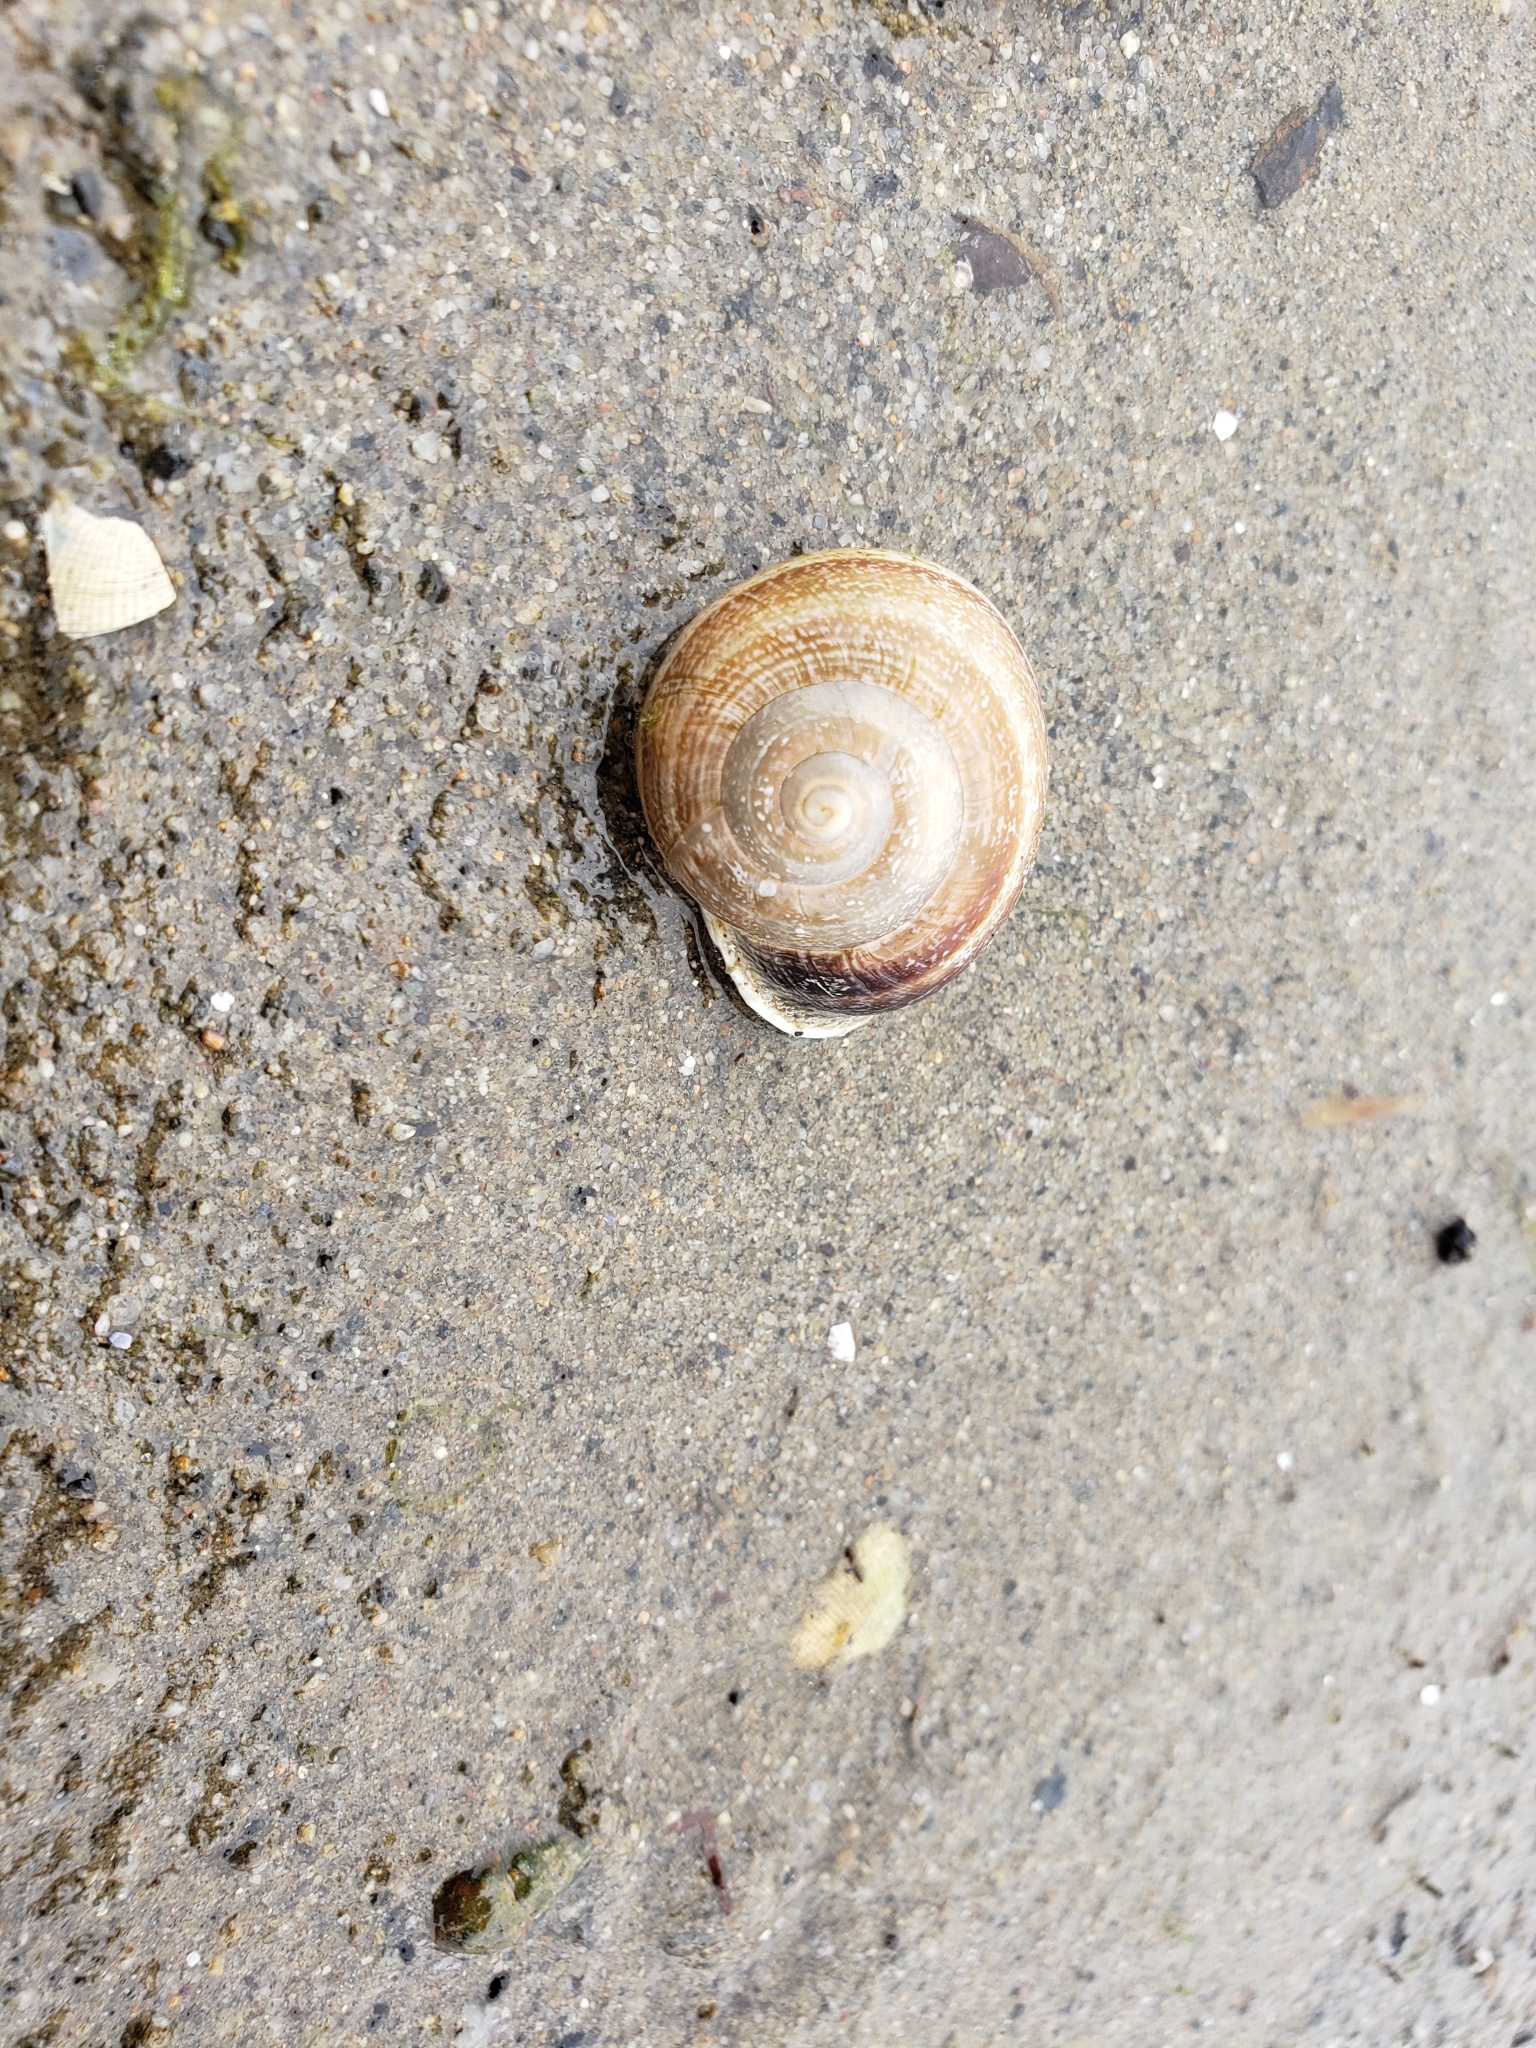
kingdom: Animalia
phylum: Mollusca
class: Gastropoda
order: Stylommatophora
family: Helicidae
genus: Otala
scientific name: Otala lactea
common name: Milk snail
